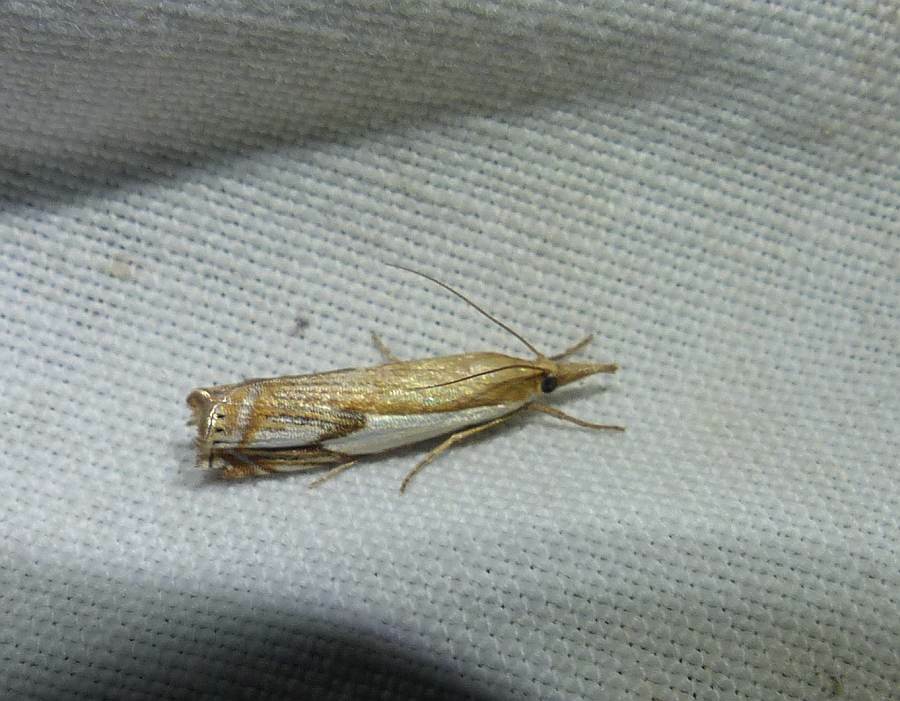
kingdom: Animalia
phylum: Arthropoda
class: Insecta
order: Lepidoptera
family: Crambidae
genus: Crambus
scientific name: Crambus agitatellus
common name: Double-banded grass-veneer
